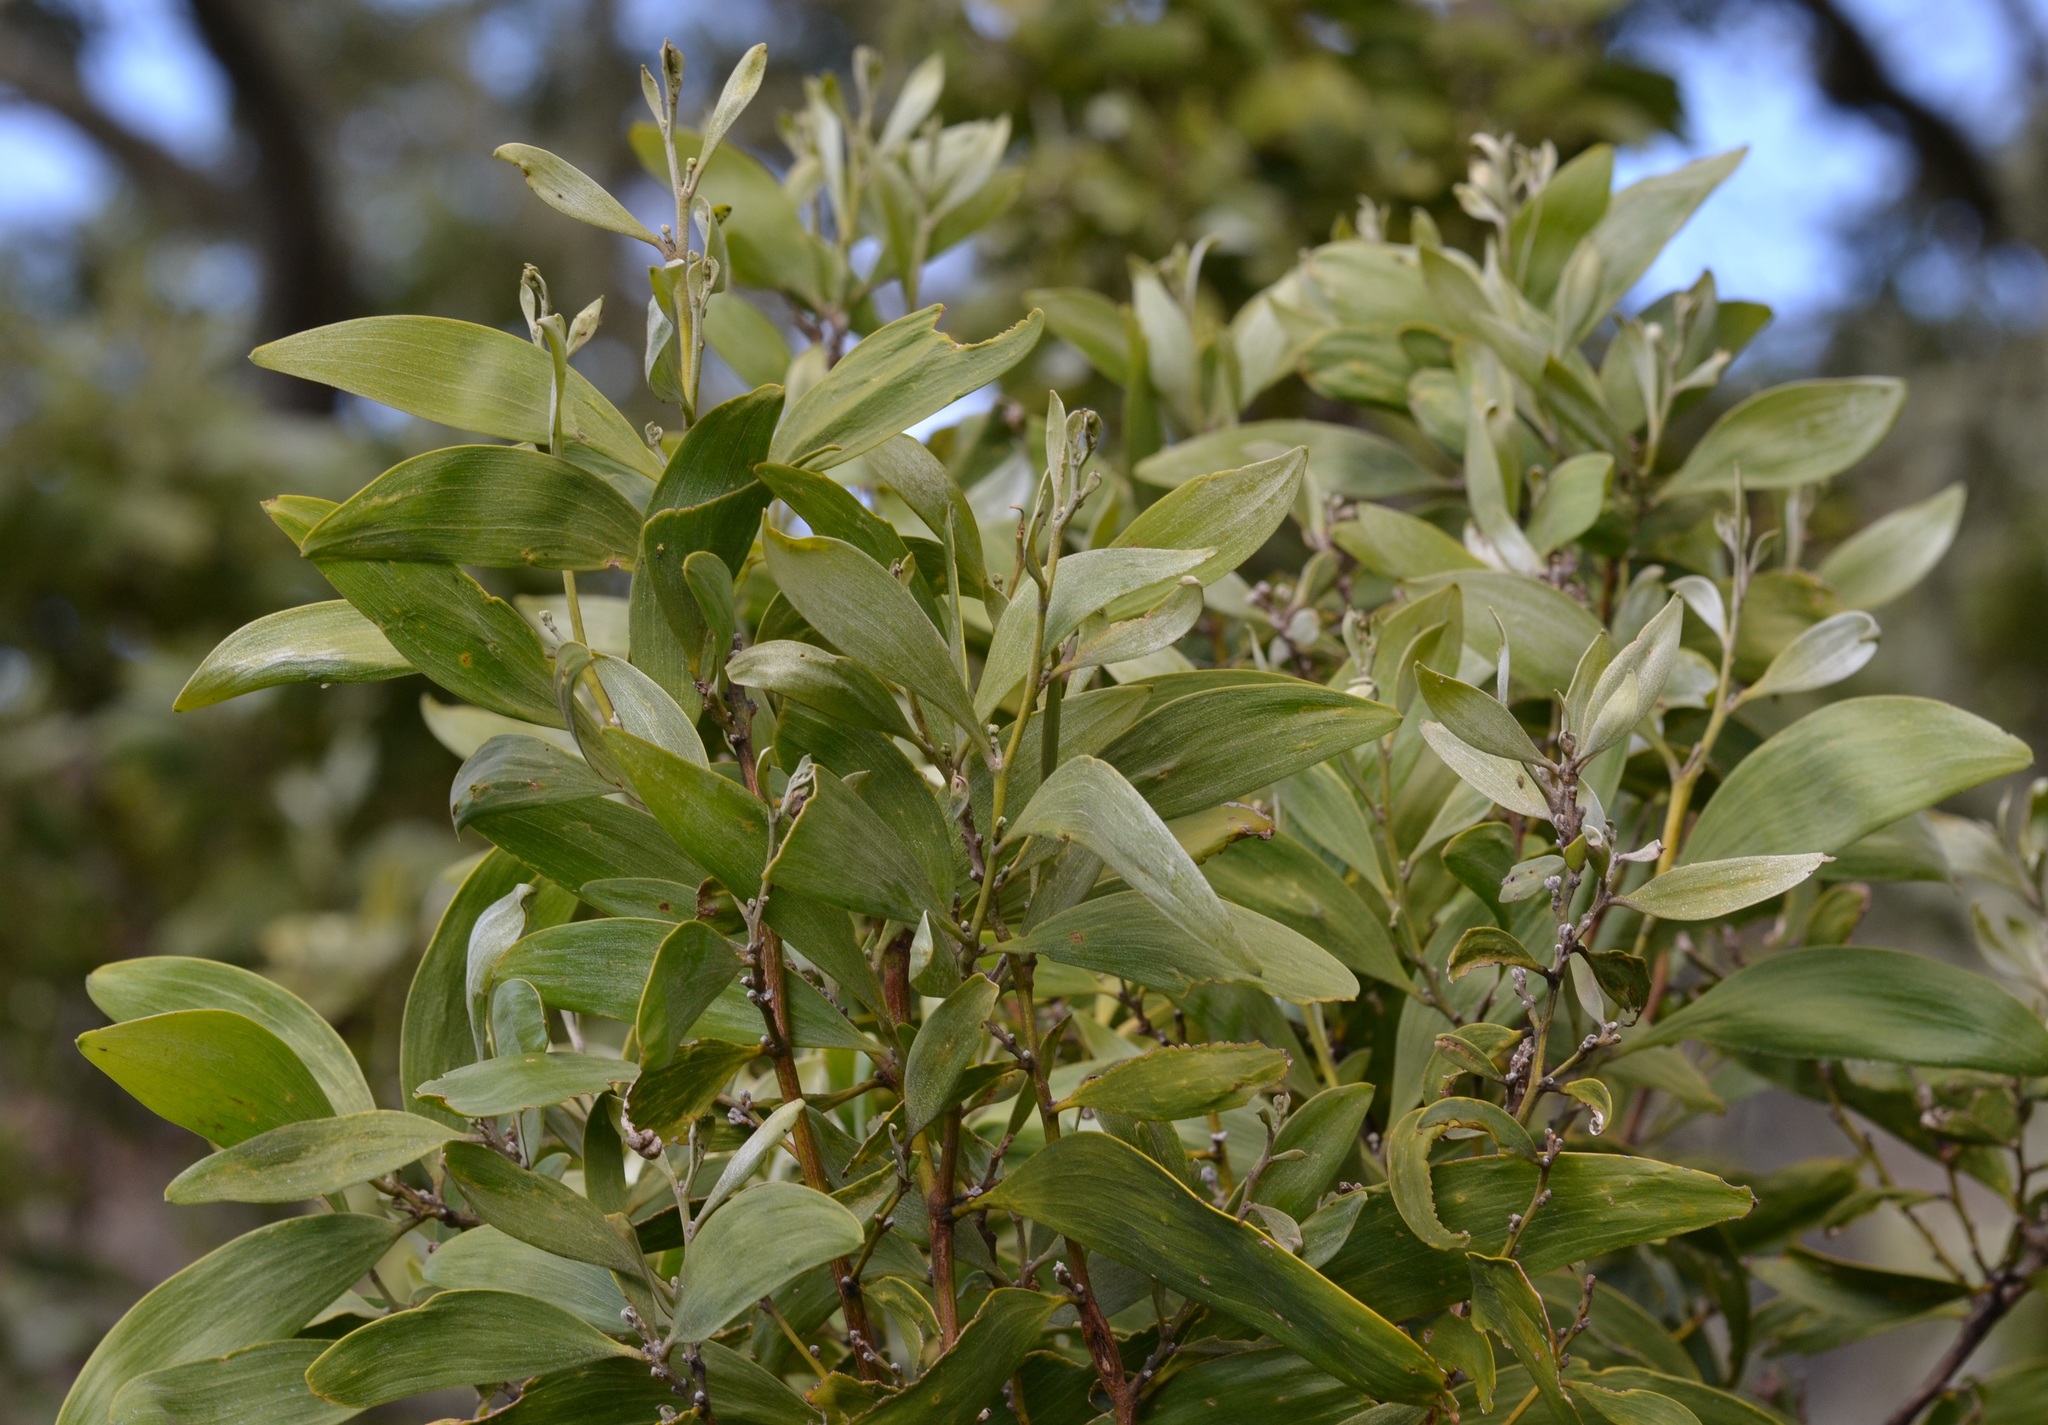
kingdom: Plantae
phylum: Tracheophyta
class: Magnoliopsida
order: Fabales
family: Fabaceae
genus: Acacia
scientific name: Acacia koa
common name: Gray koa
